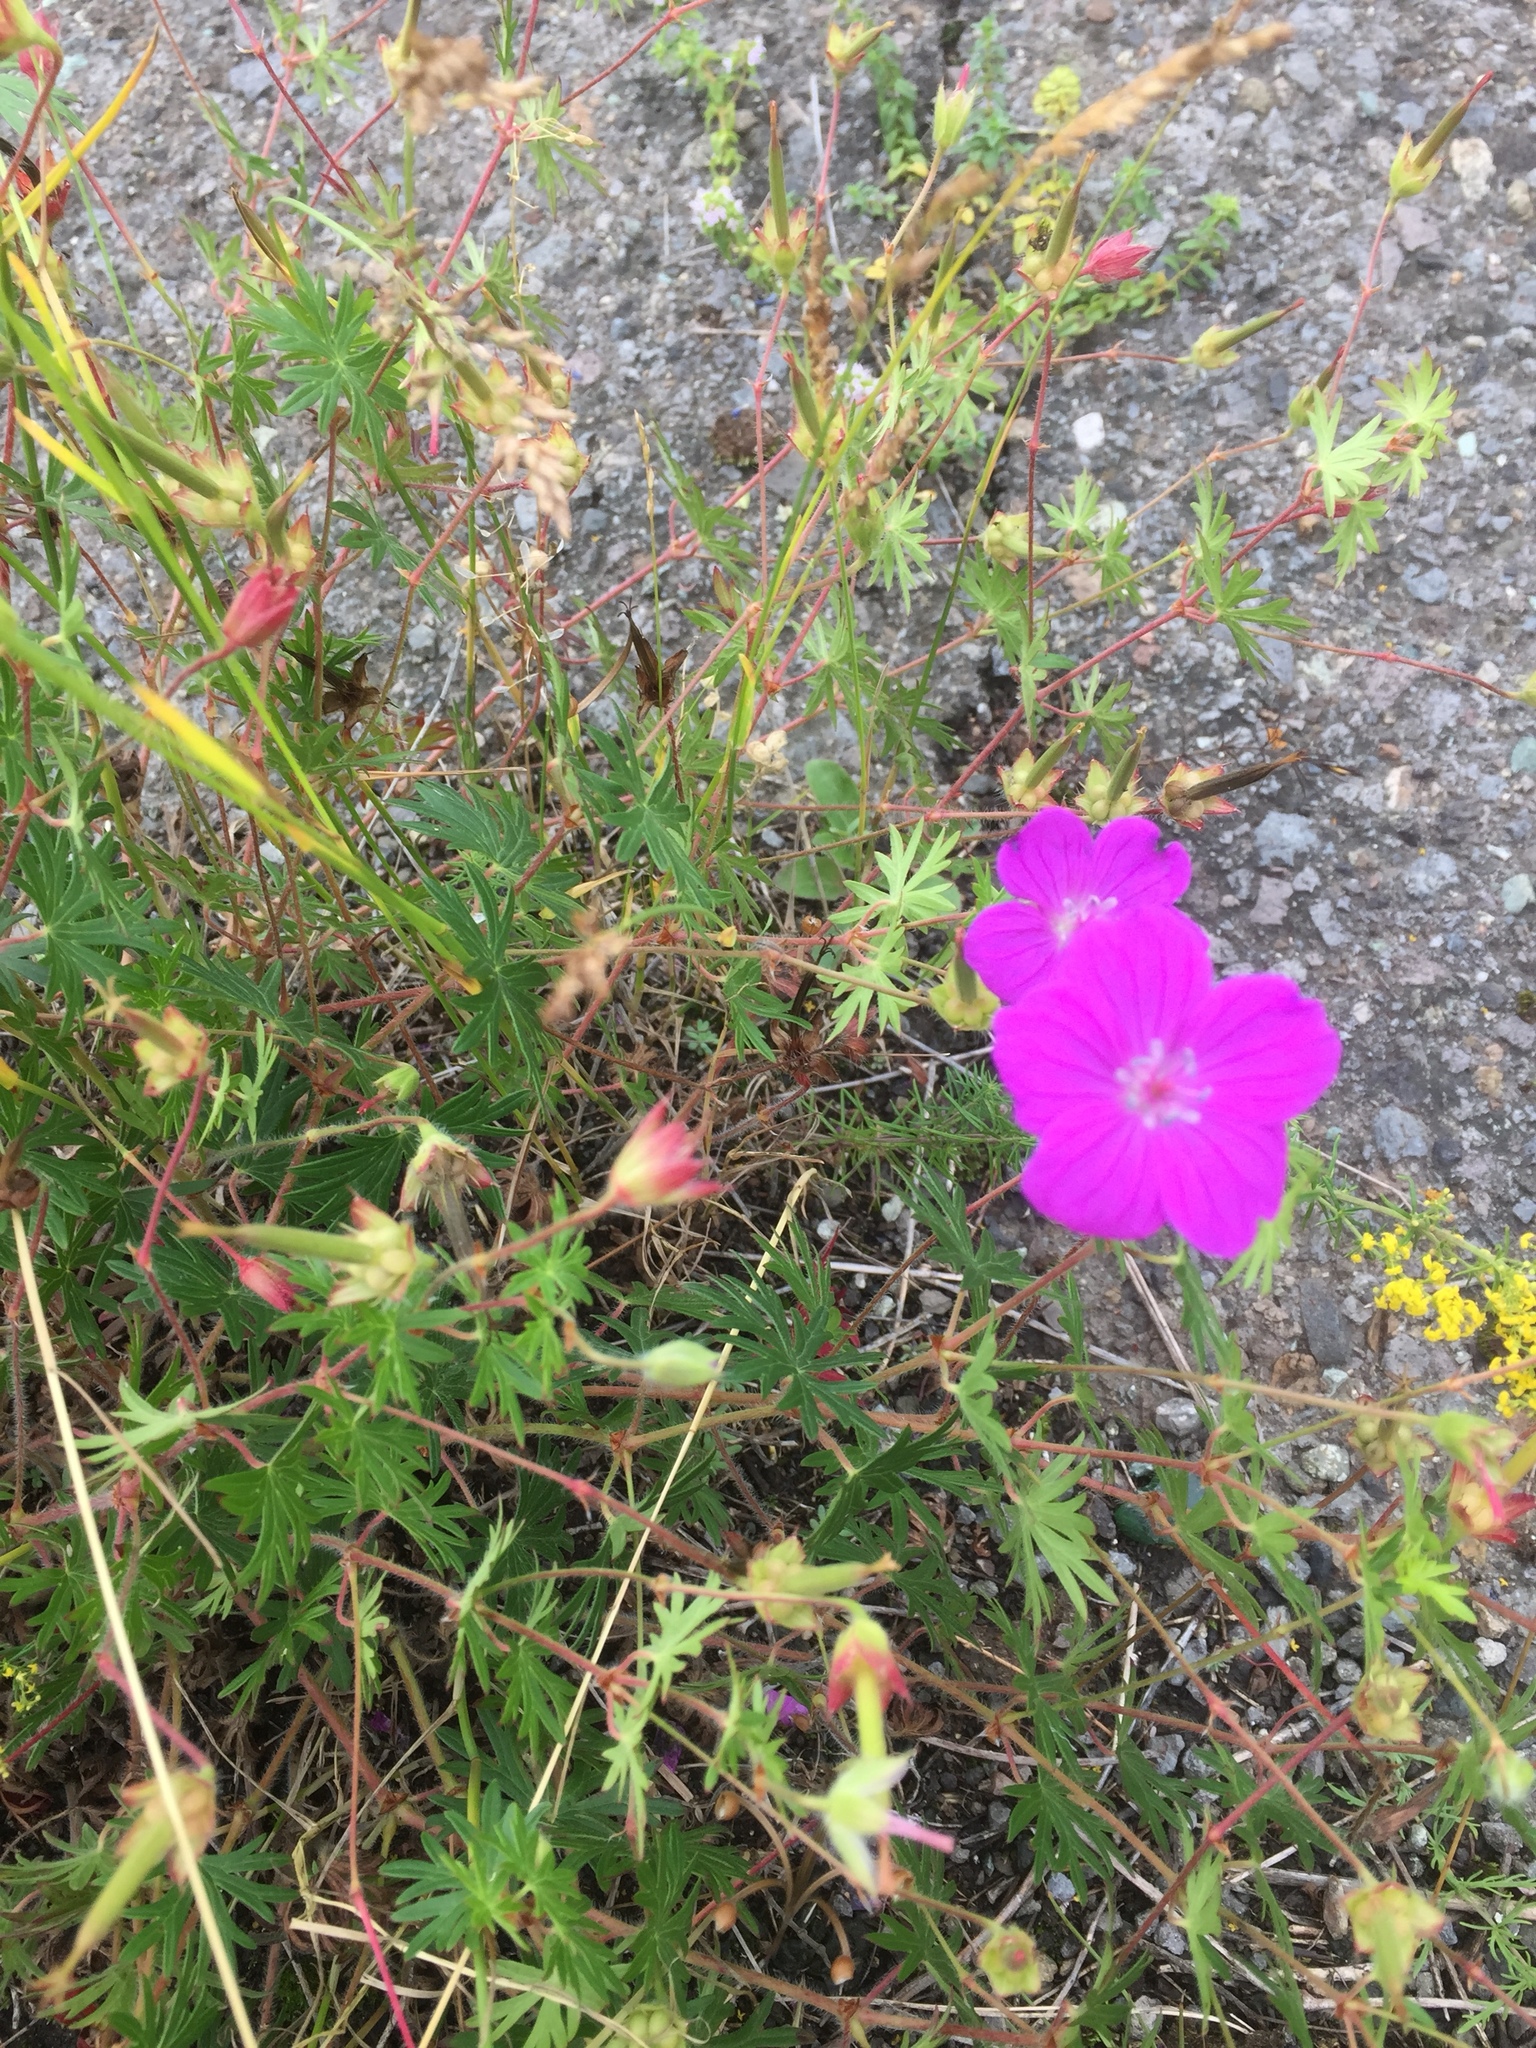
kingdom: Plantae
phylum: Tracheophyta
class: Magnoliopsida
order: Geraniales
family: Geraniaceae
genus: Geranium
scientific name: Geranium sanguineum
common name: Bloody crane's-bill
